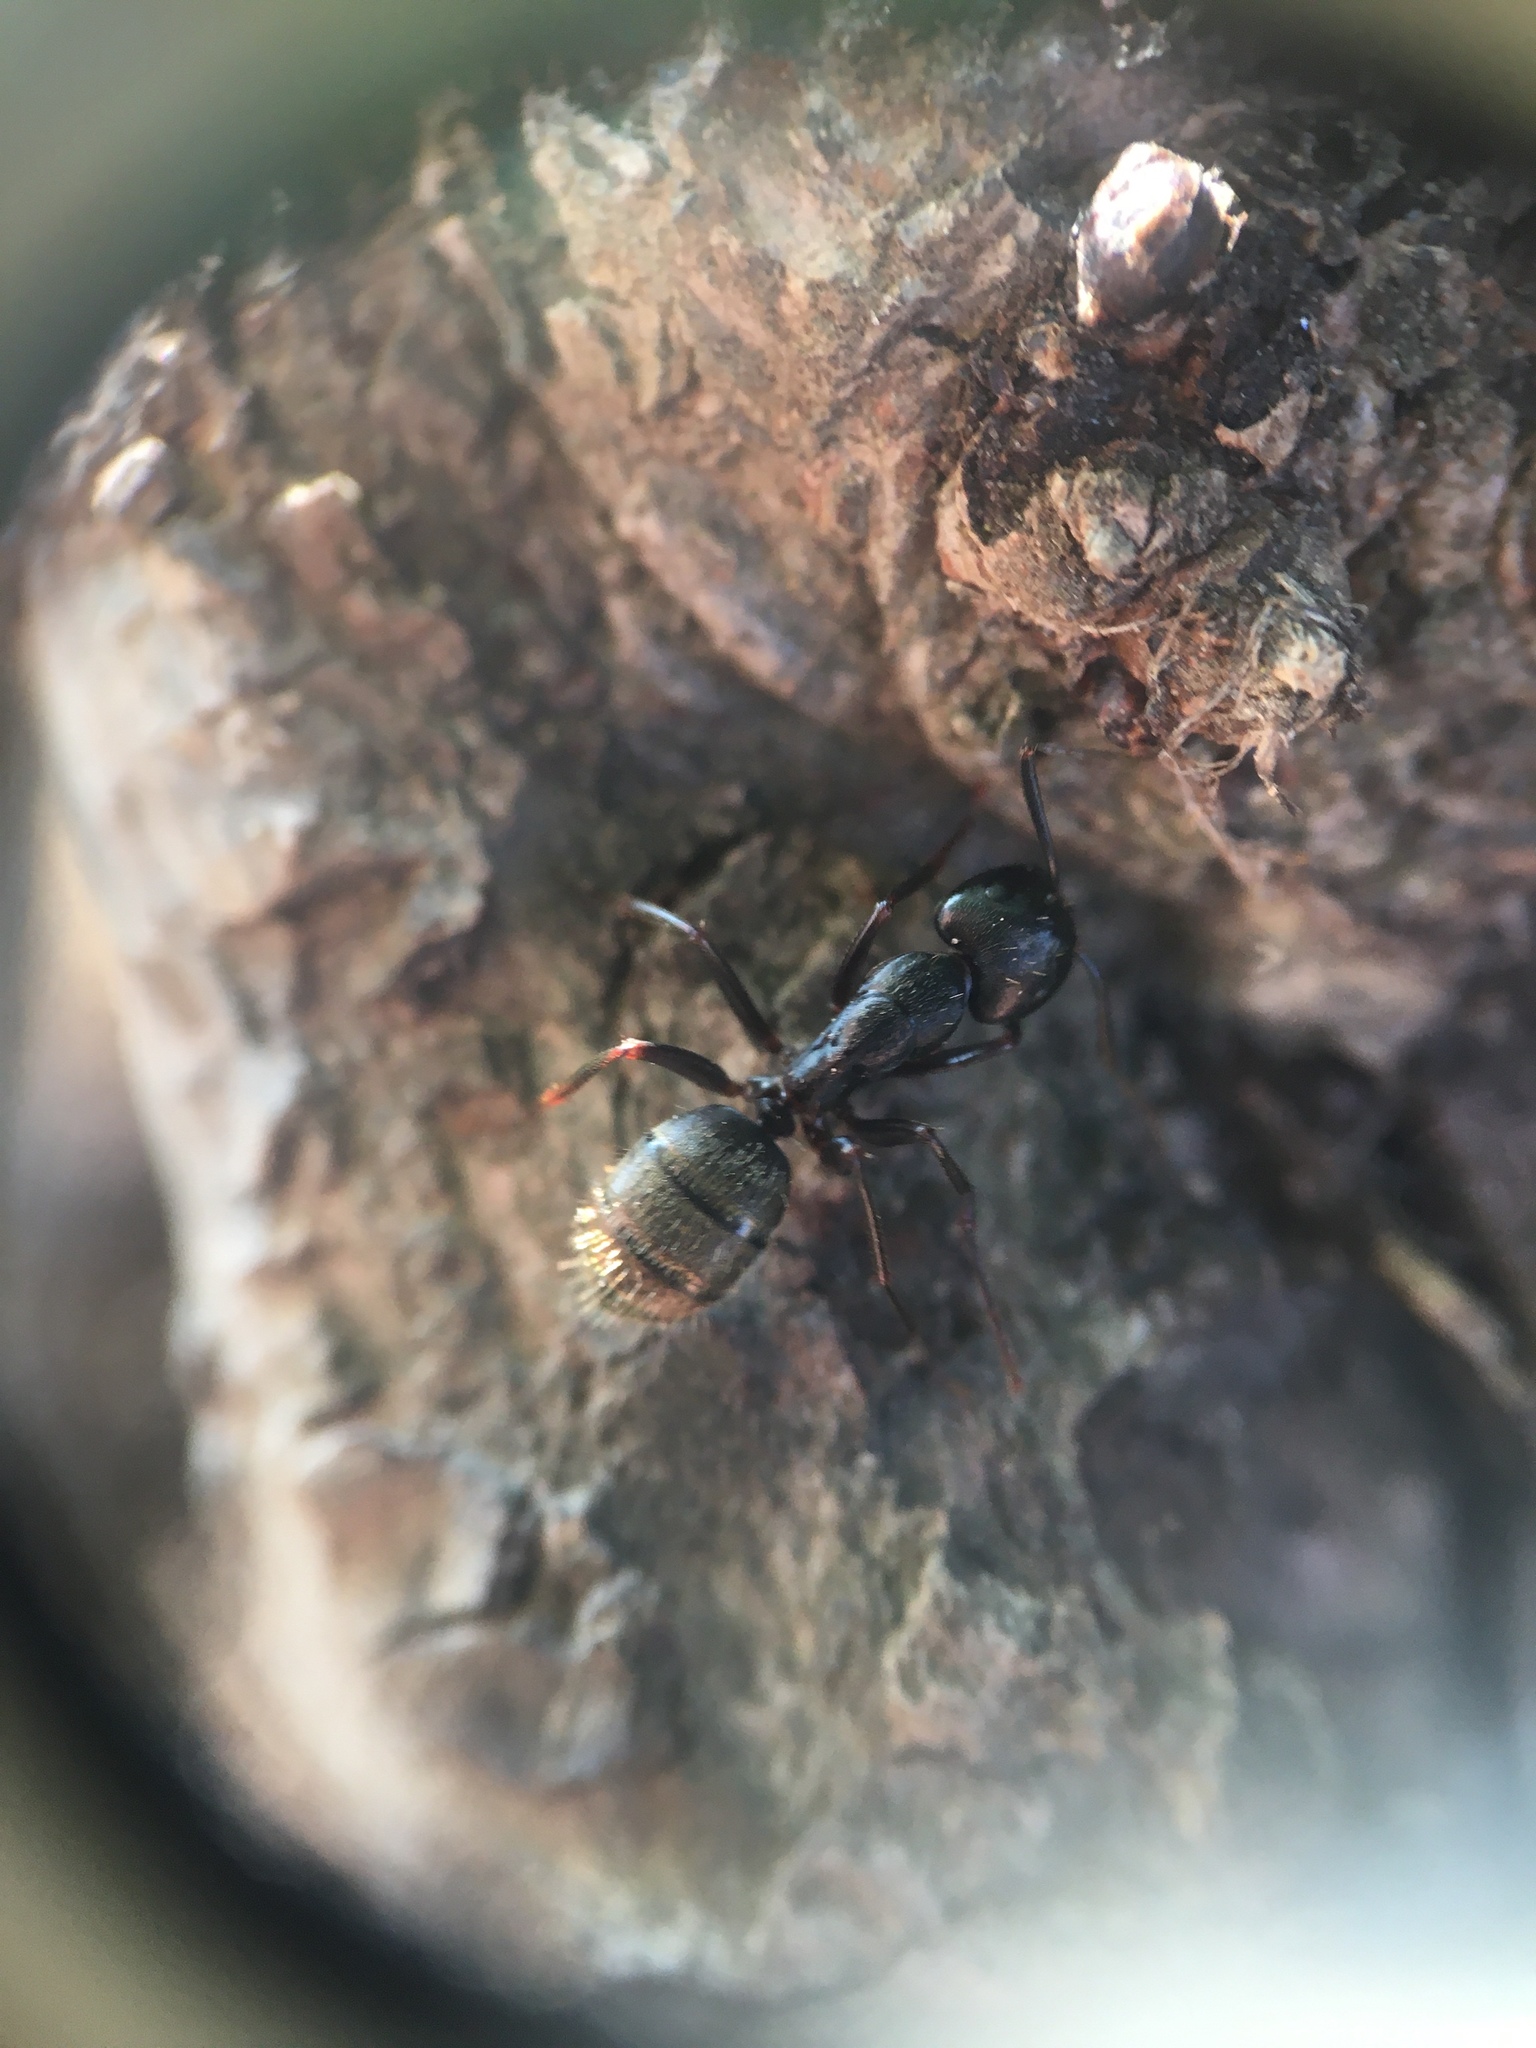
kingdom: Animalia
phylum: Arthropoda
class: Insecta
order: Hymenoptera
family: Formicidae
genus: Camponotus
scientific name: Camponotus pennsylvanicus
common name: Black carpenter ant
